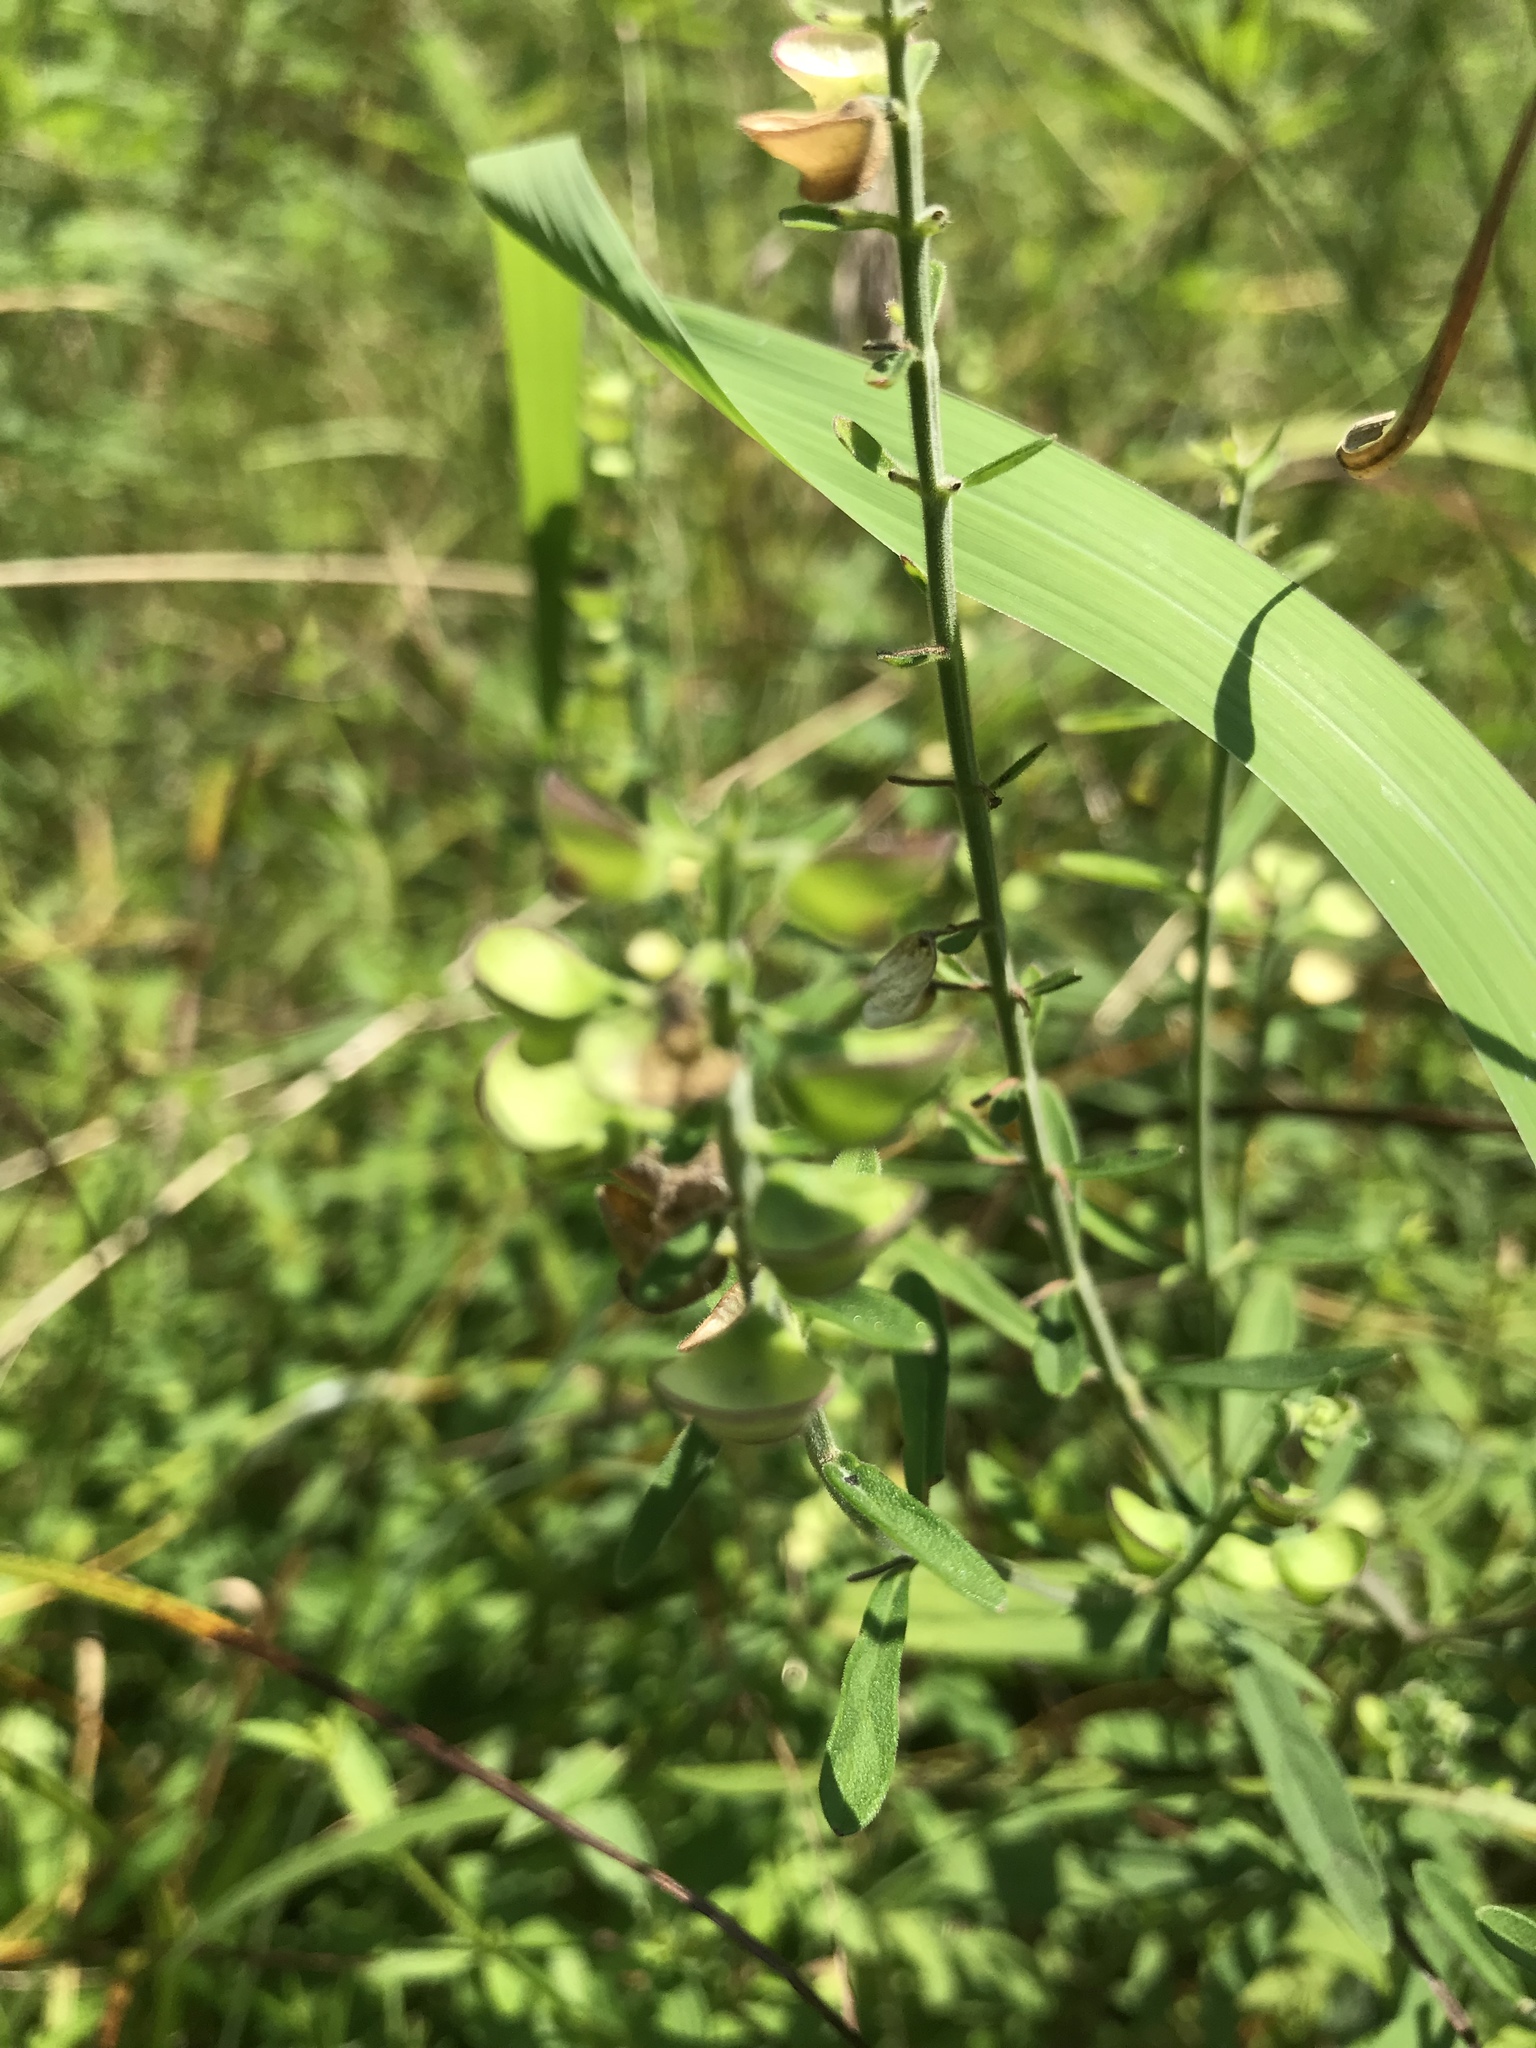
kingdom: Plantae
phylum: Tracheophyta
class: Magnoliopsida
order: Lamiales
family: Lamiaceae
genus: Scutellaria
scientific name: Scutellaria integrifolia
